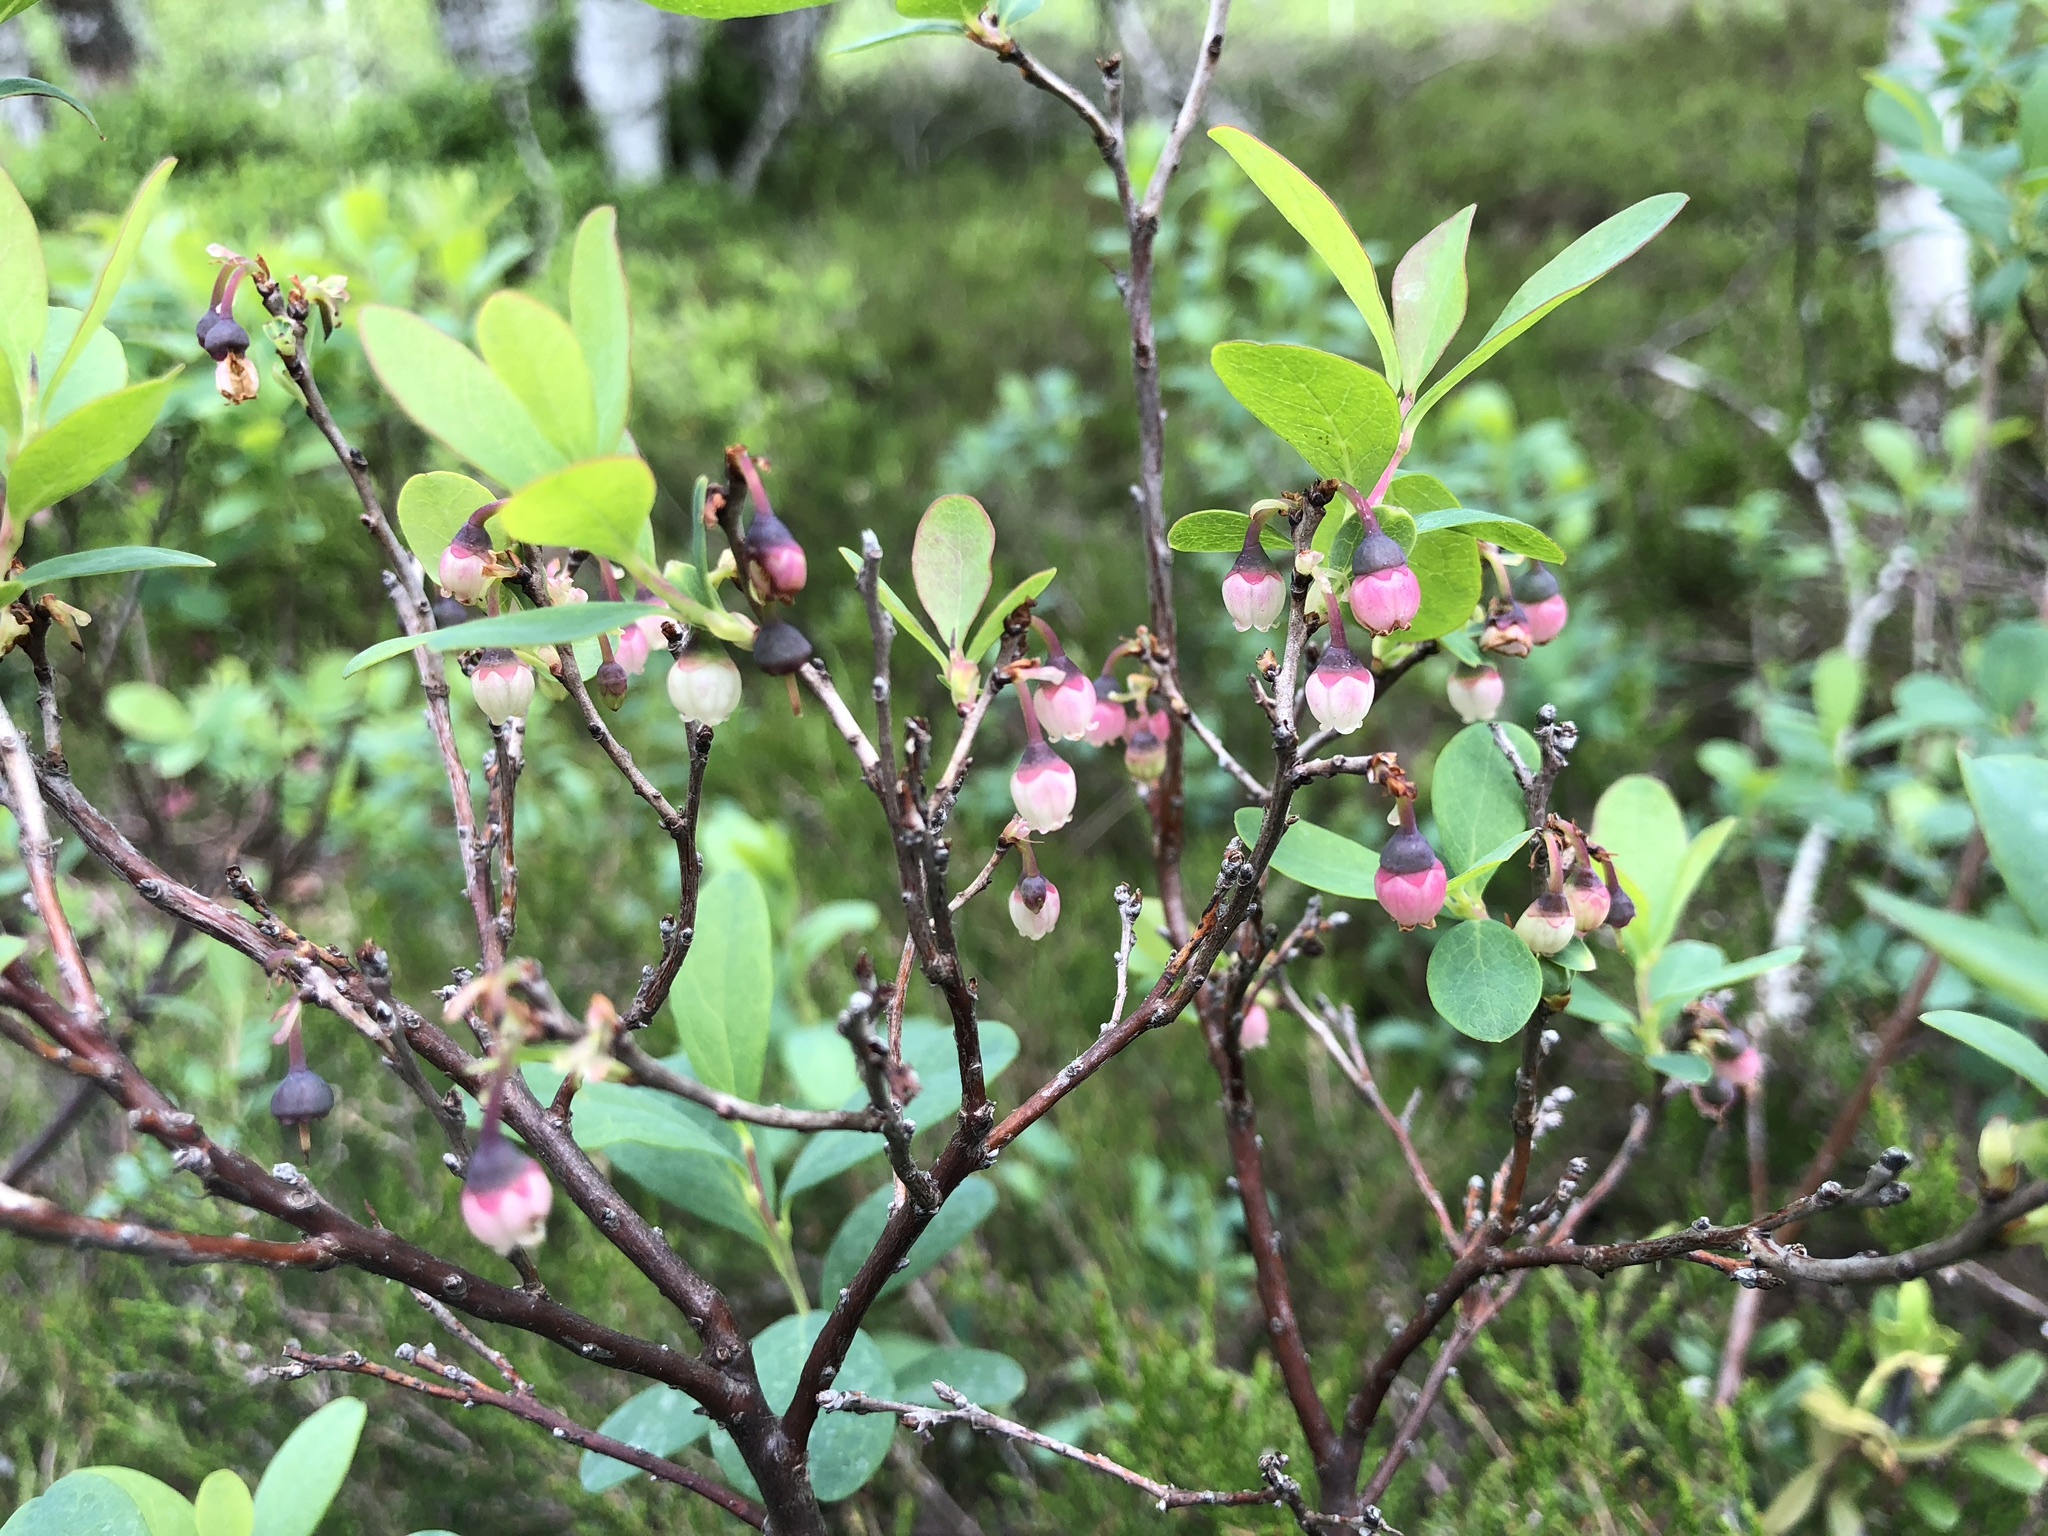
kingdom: Plantae
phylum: Tracheophyta
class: Magnoliopsida
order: Ericales
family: Ericaceae
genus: Vaccinium
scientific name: Vaccinium uliginosum
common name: Bog bilberry
